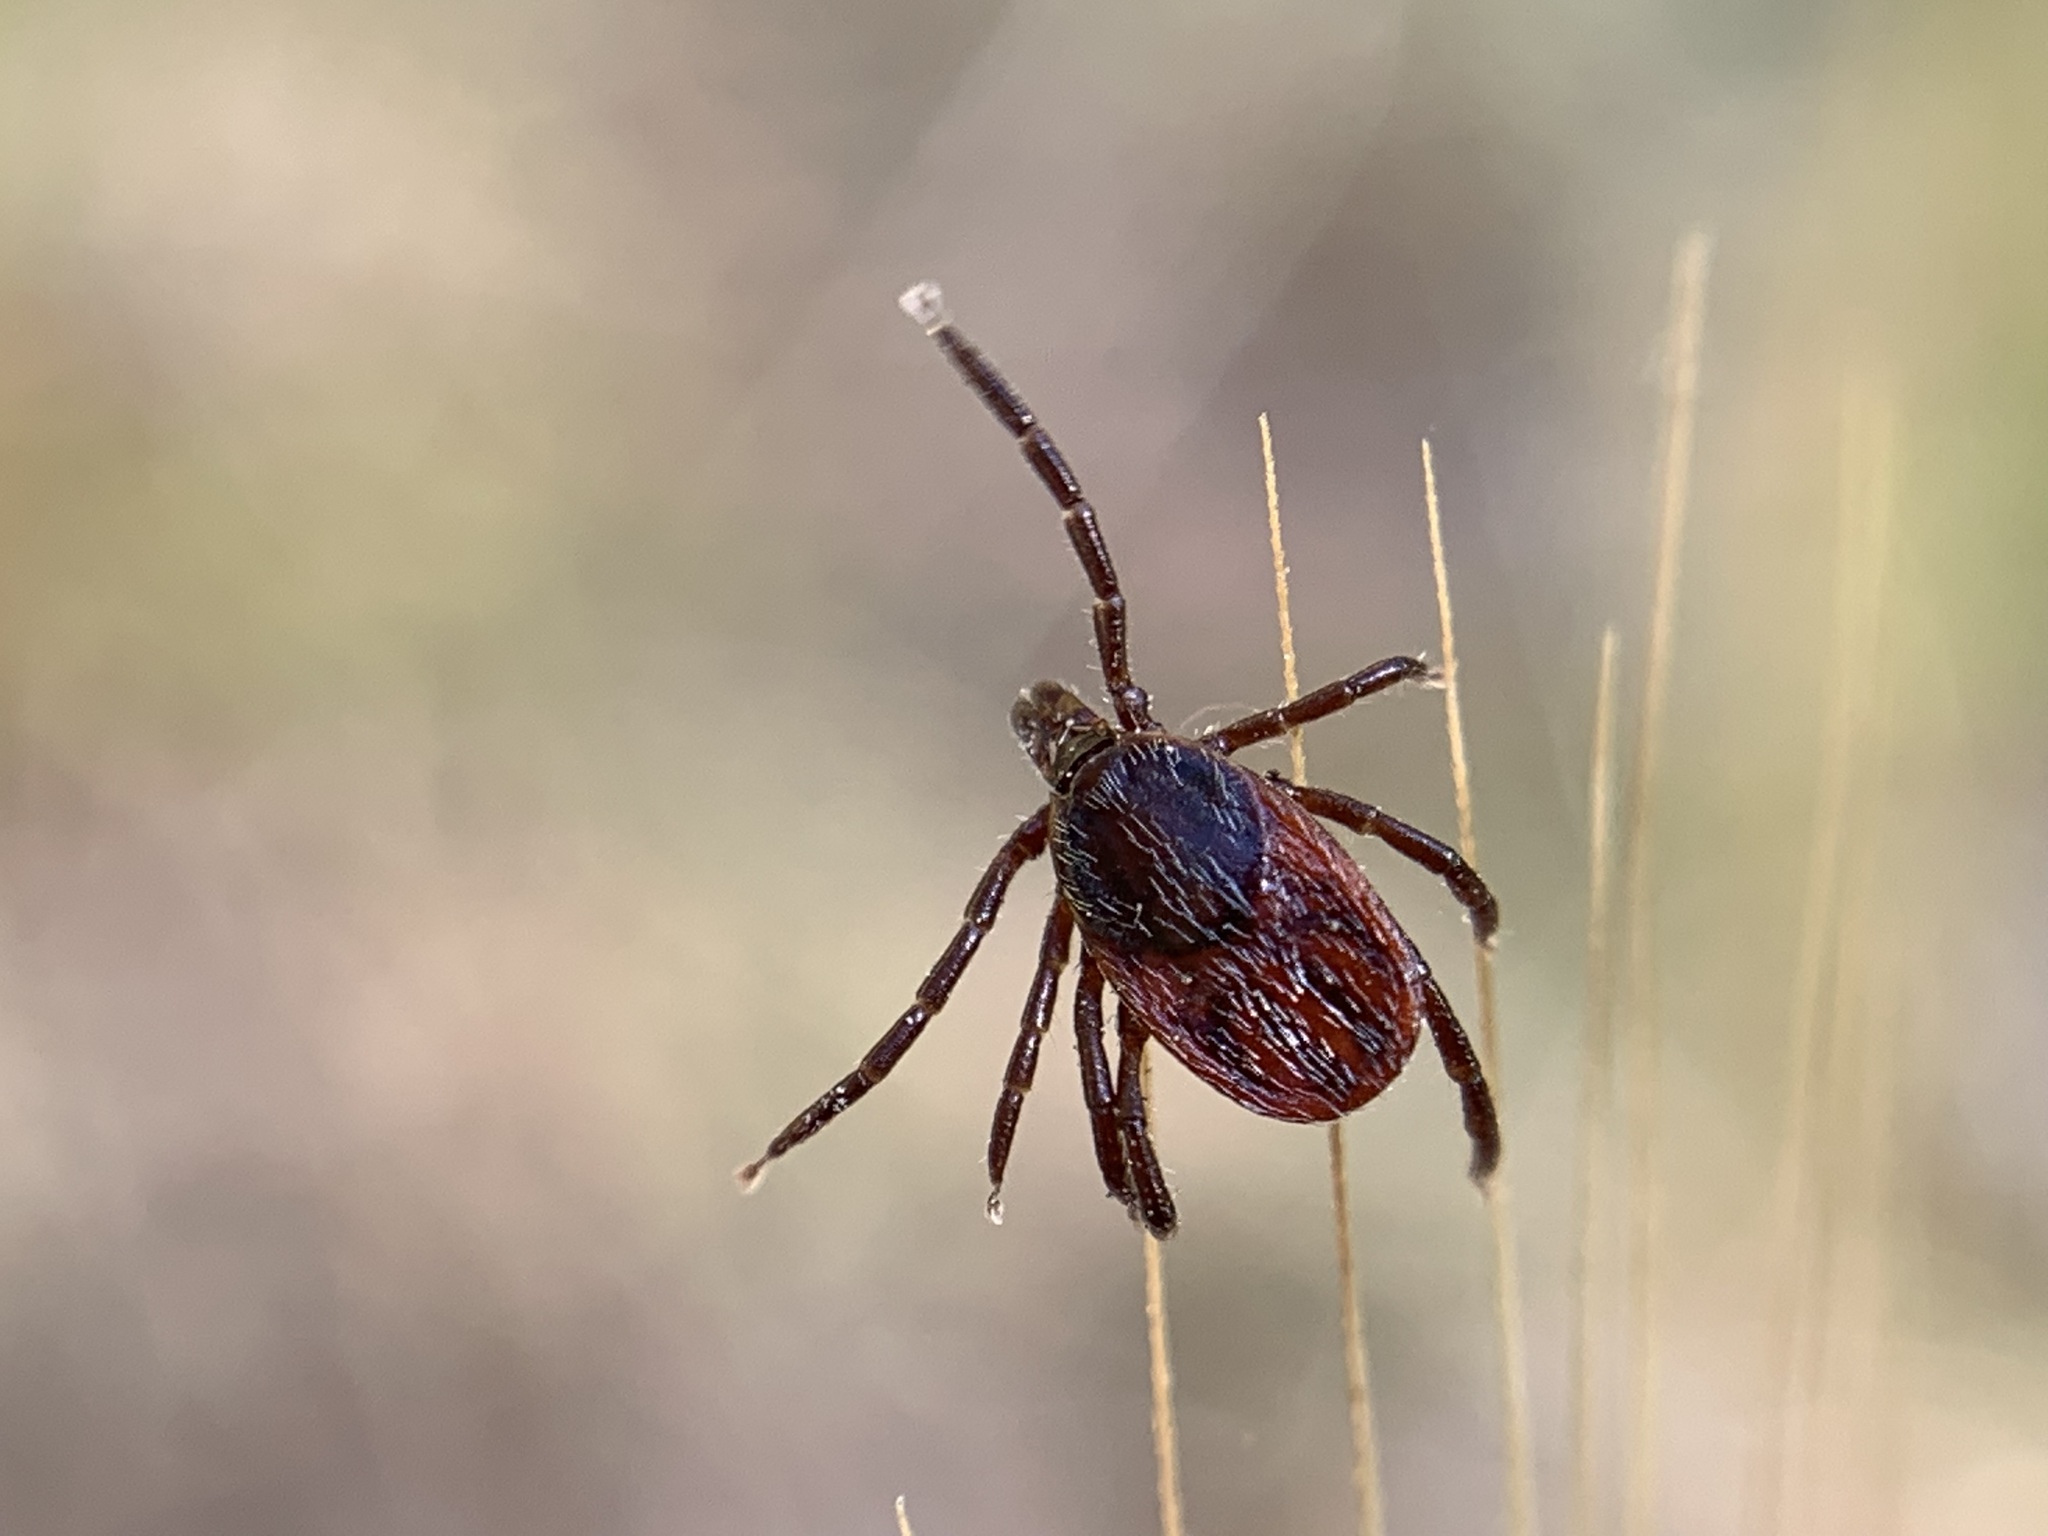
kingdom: Animalia
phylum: Arthropoda
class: Arachnida
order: Ixodida
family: Ixodidae
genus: Ixodes
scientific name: Ixodes pacificus
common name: California black-legged tick
